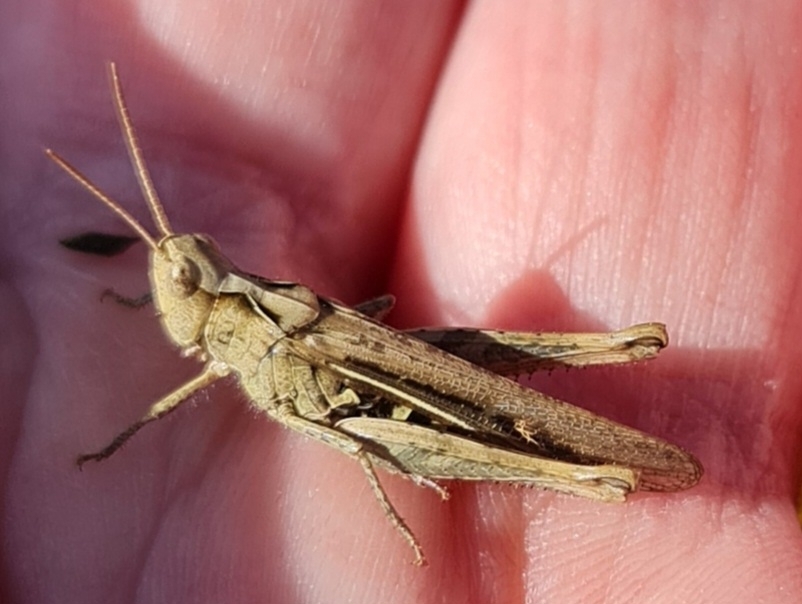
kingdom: Animalia
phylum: Arthropoda
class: Insecta
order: Orthoptera
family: Acrididae
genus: Chorthippus
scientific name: Chorthippus brunneus
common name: Field grasshopper
